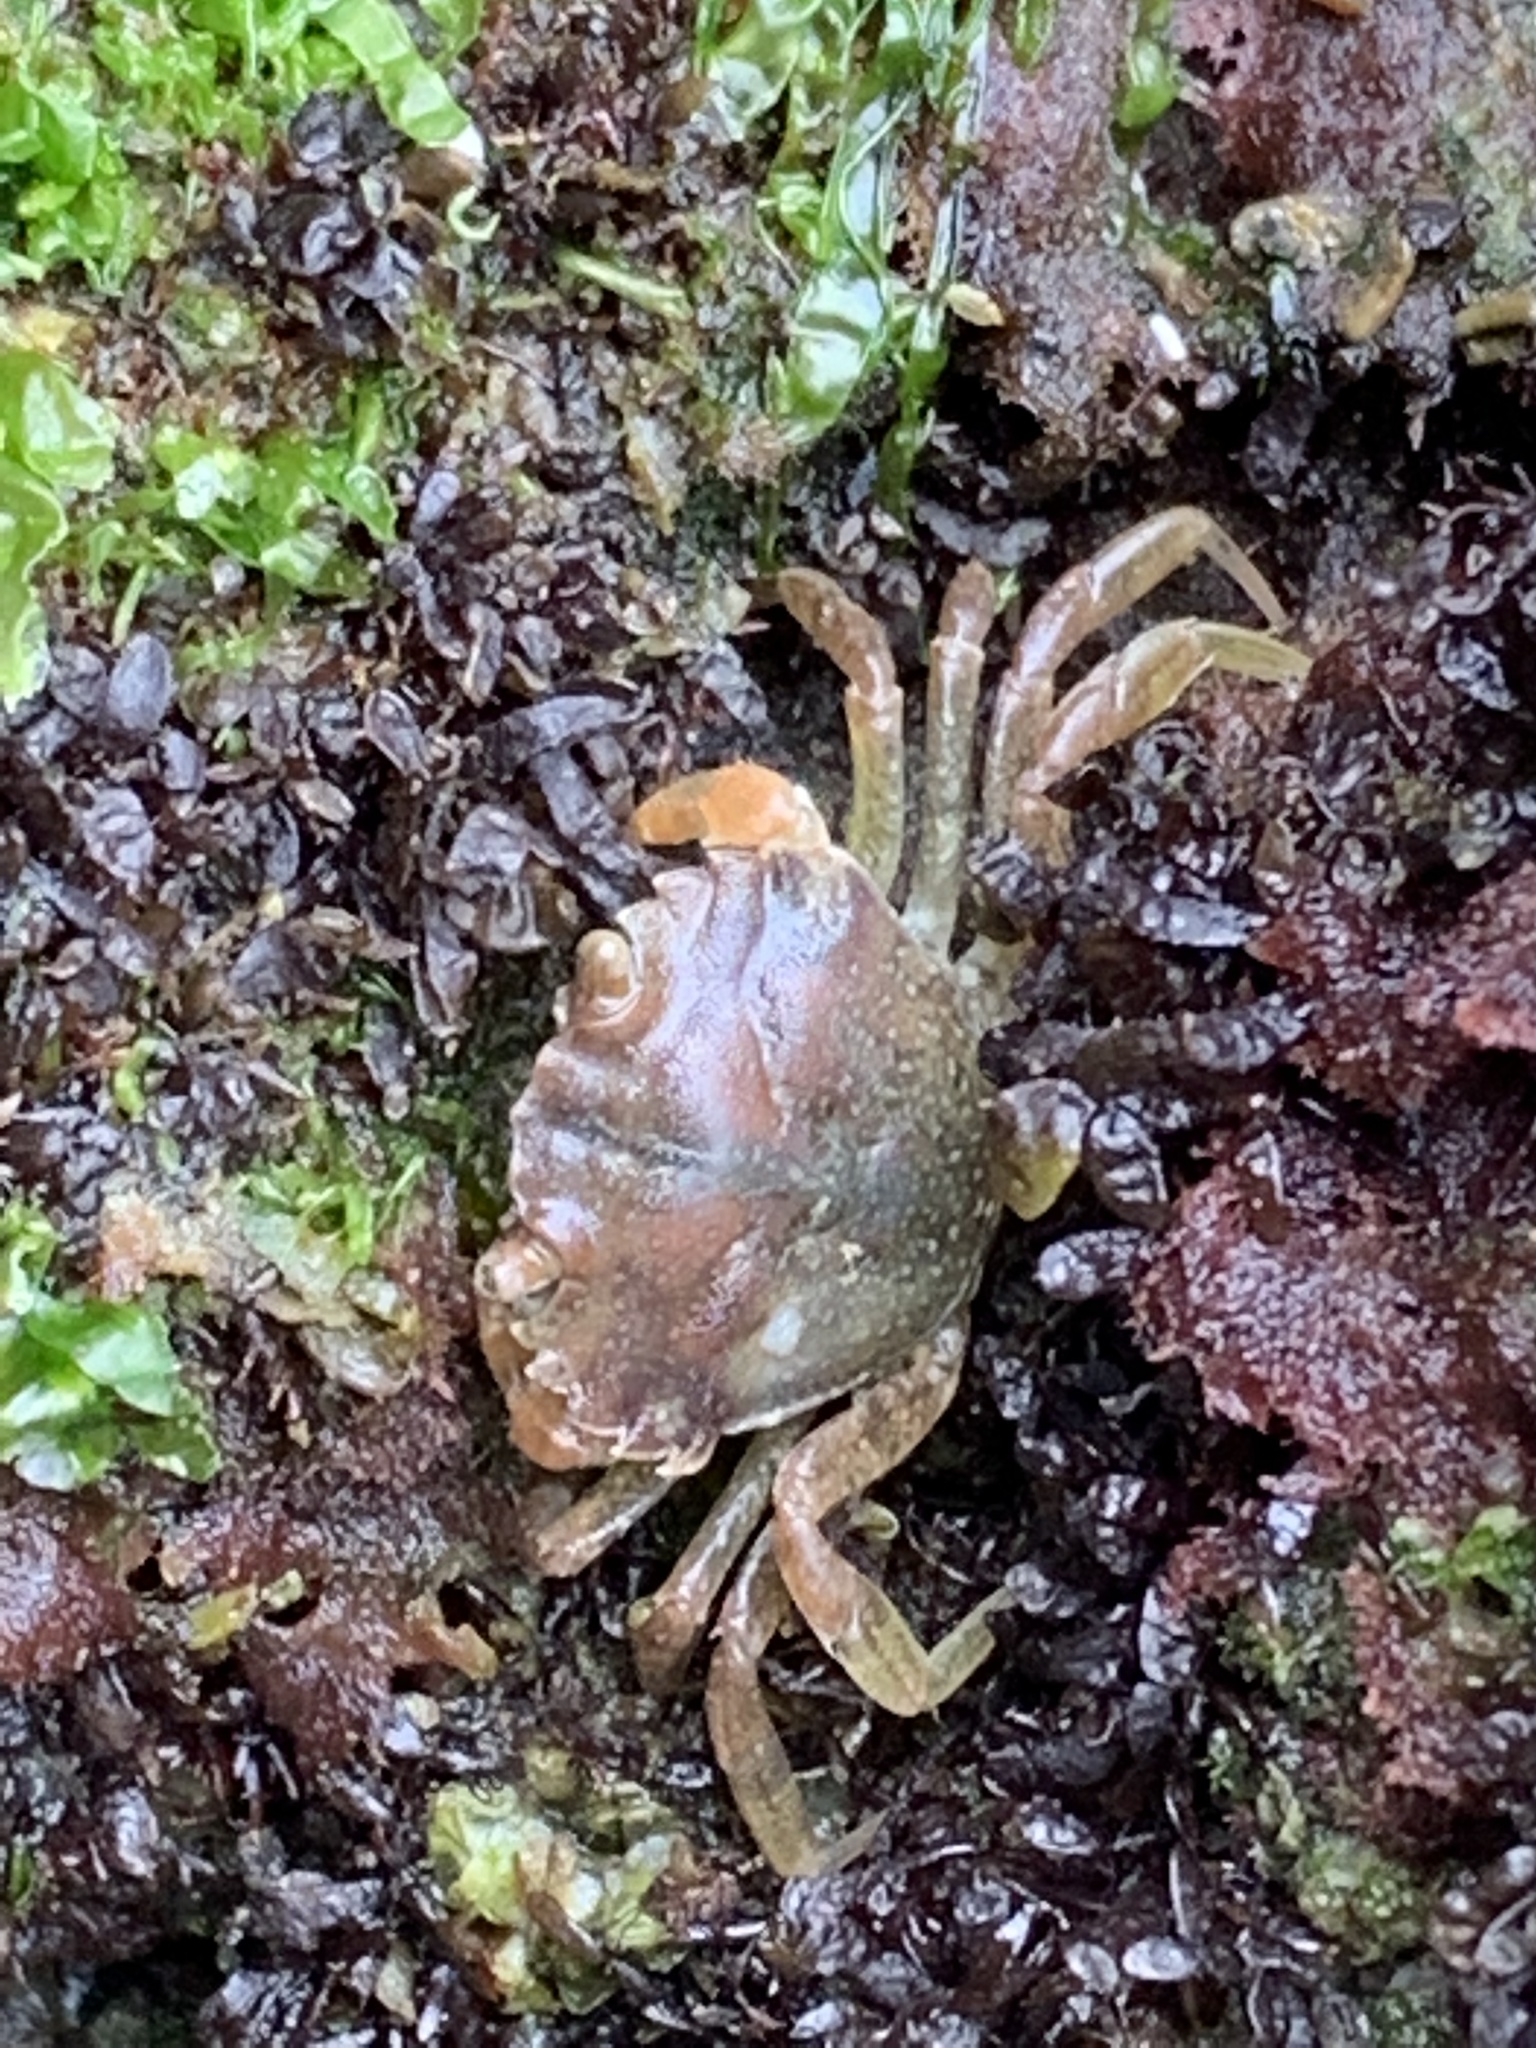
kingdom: Animalia
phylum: Arthropoda
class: Malacostraca
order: Decapoda
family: Carcinidae
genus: Carcinus
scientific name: Carcinus maenas
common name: European green crab
